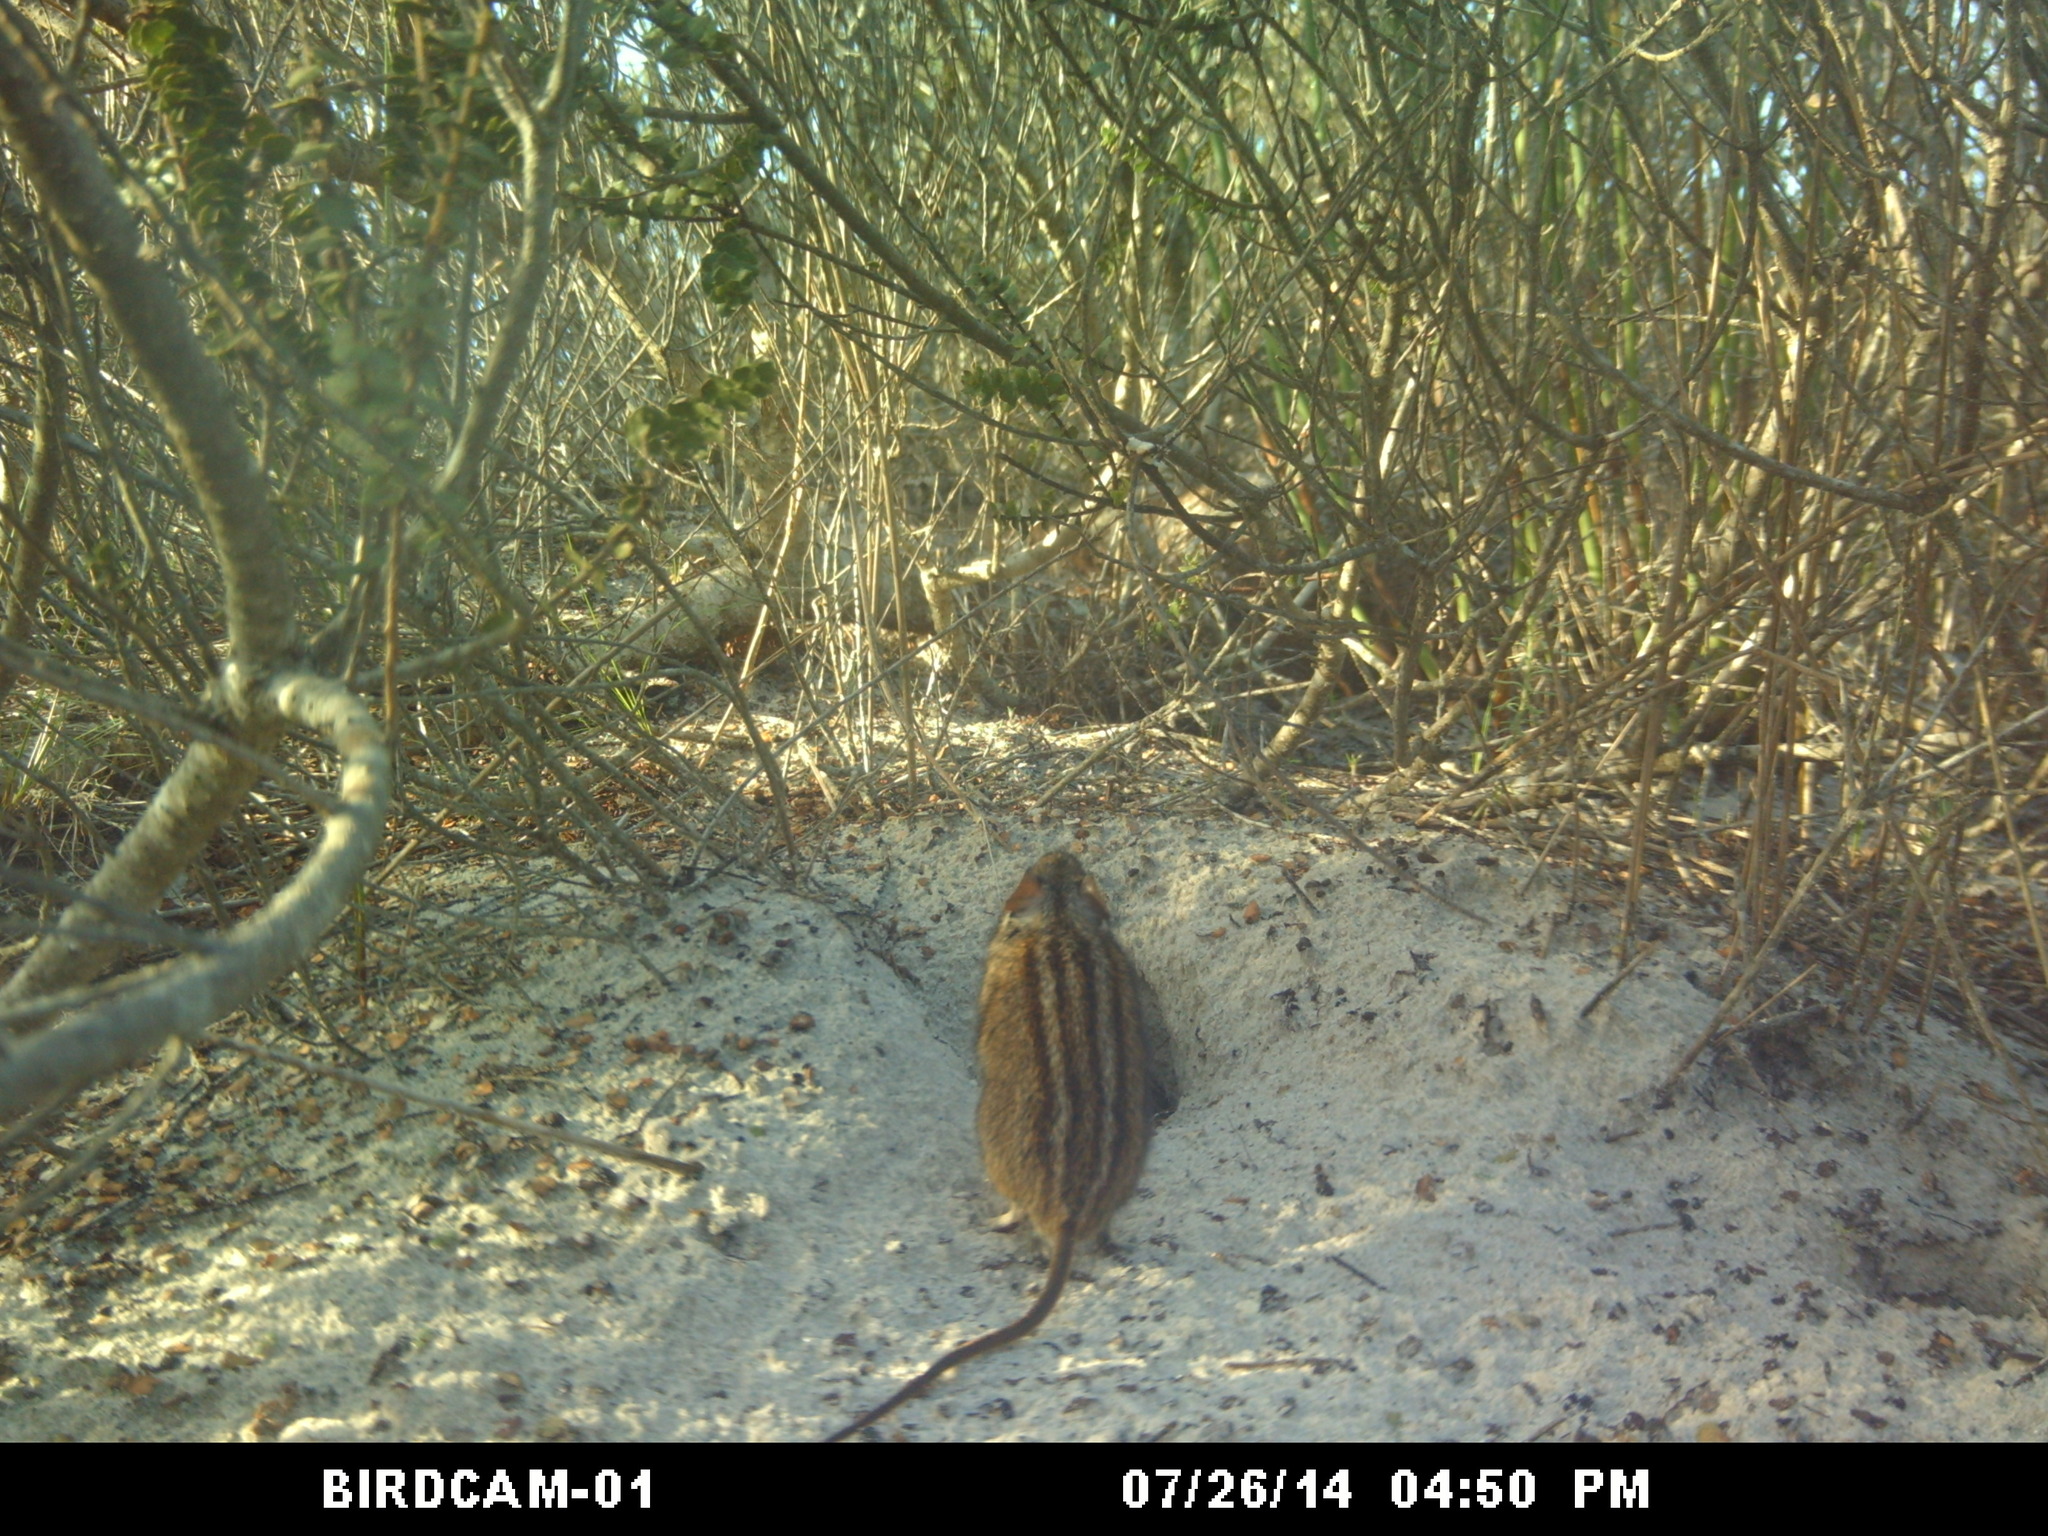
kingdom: Animalia
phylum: Chordata
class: Mammalia
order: Rodentia
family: Muridae
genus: Rhabdomys
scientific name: Rhabdomys pumilio
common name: Xeric four-striped grass rat
